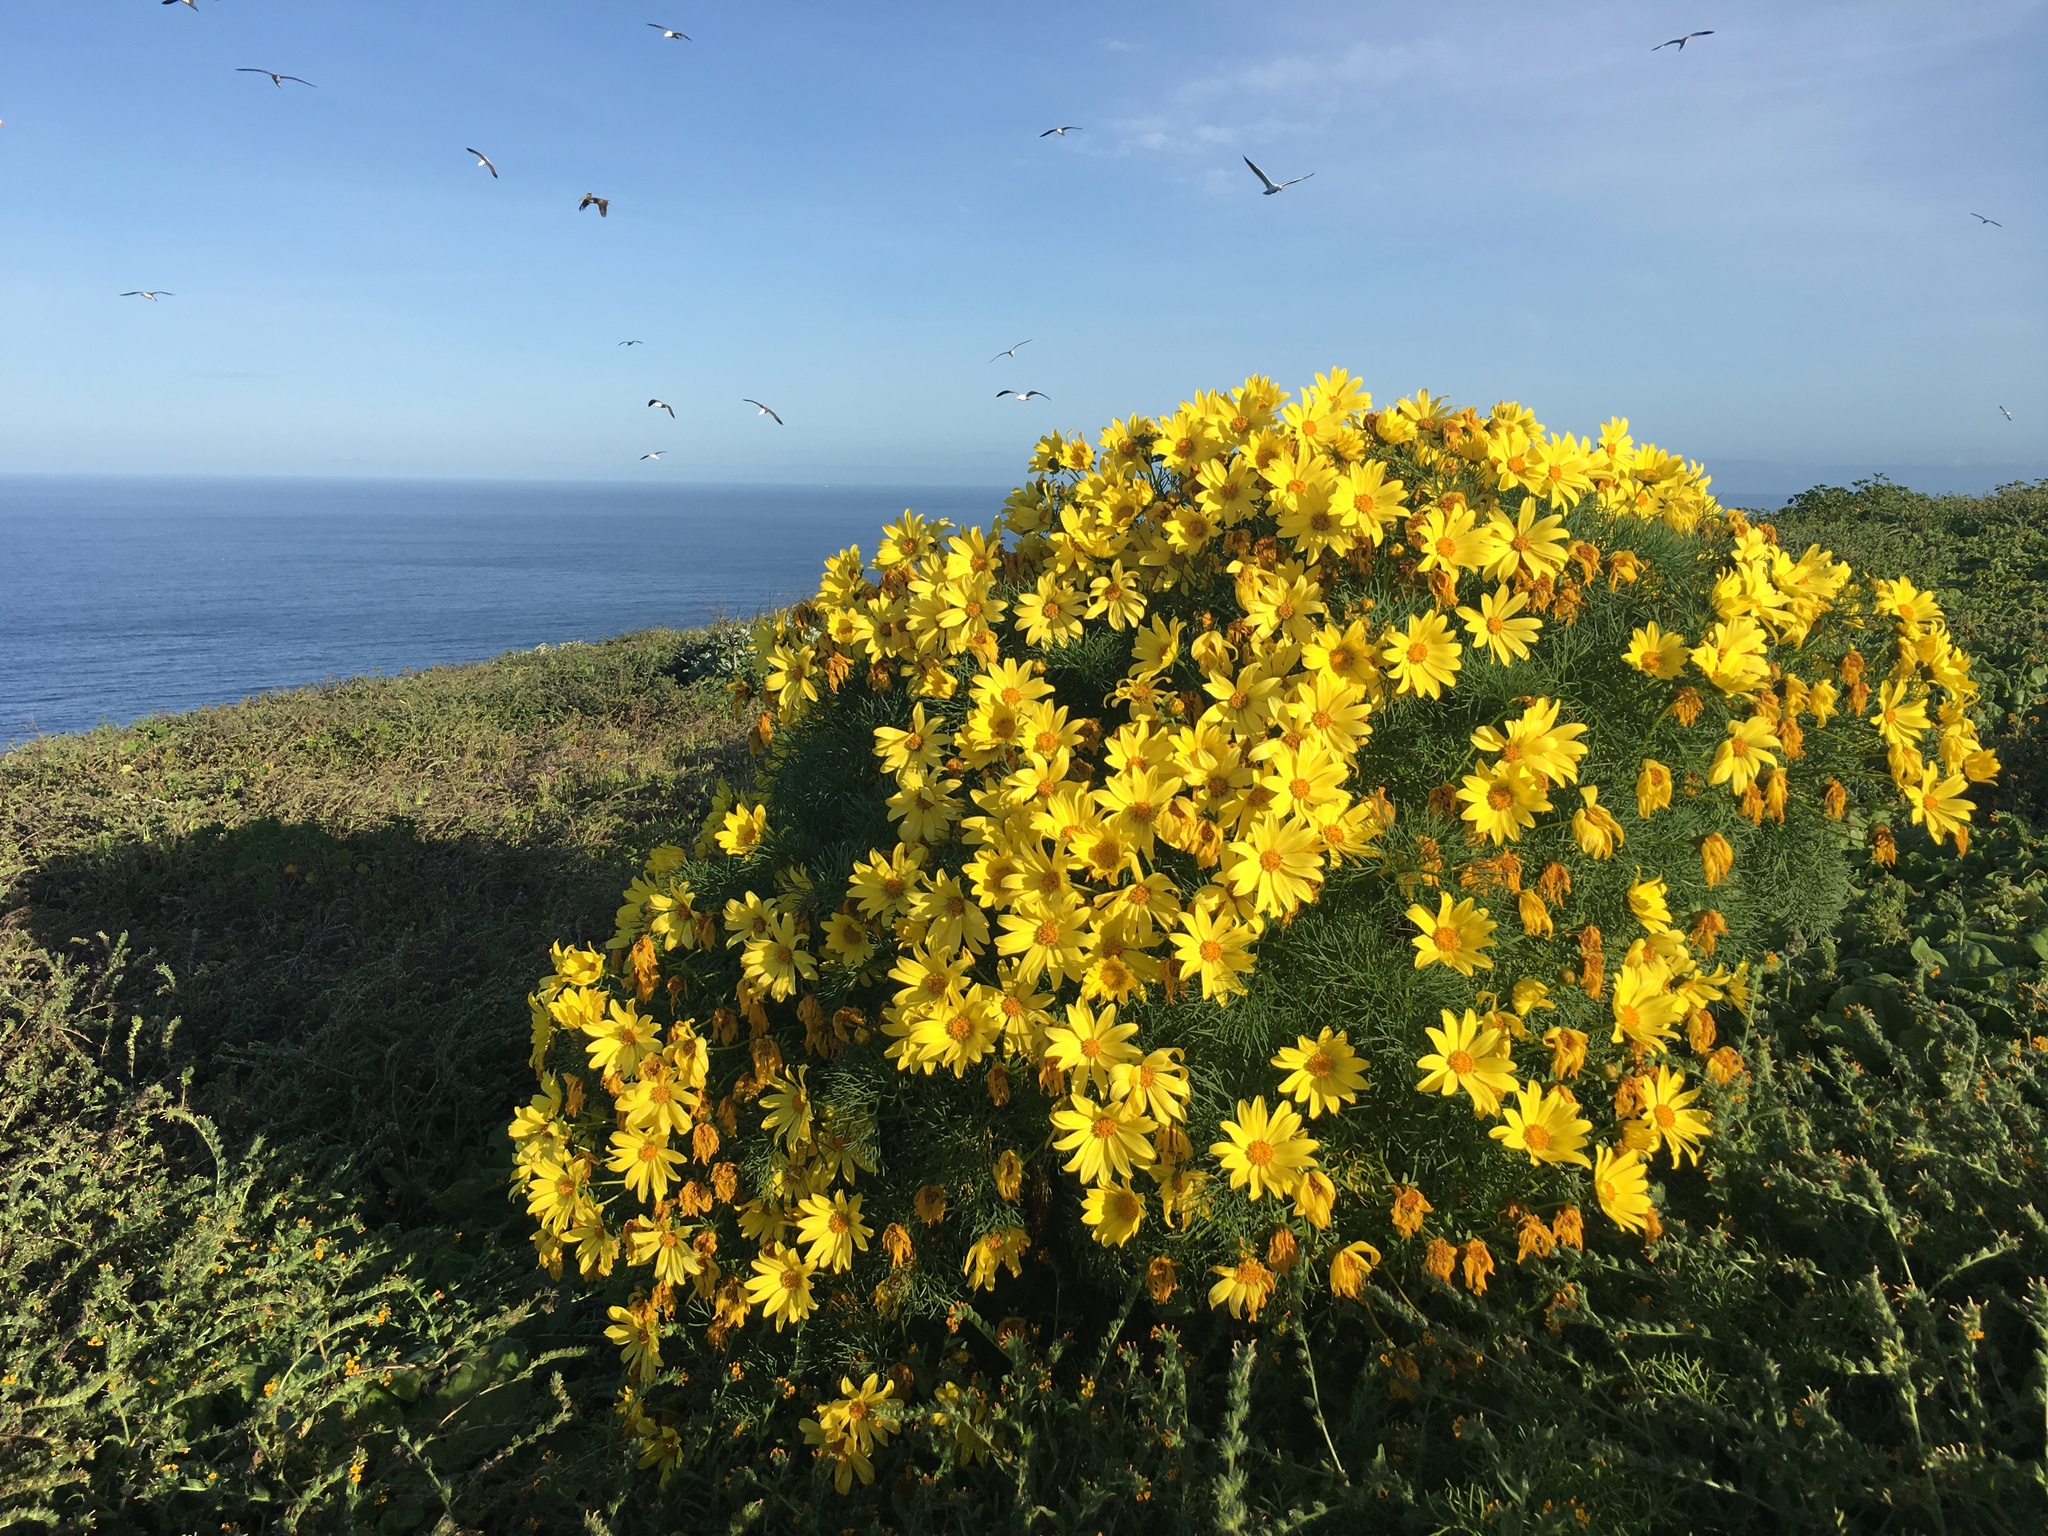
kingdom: Plantae
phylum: Tracheophyta
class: Magnoliopsida
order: Asterales
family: Asteraceae
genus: Coreopsis
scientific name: Coreopsis gigantea
